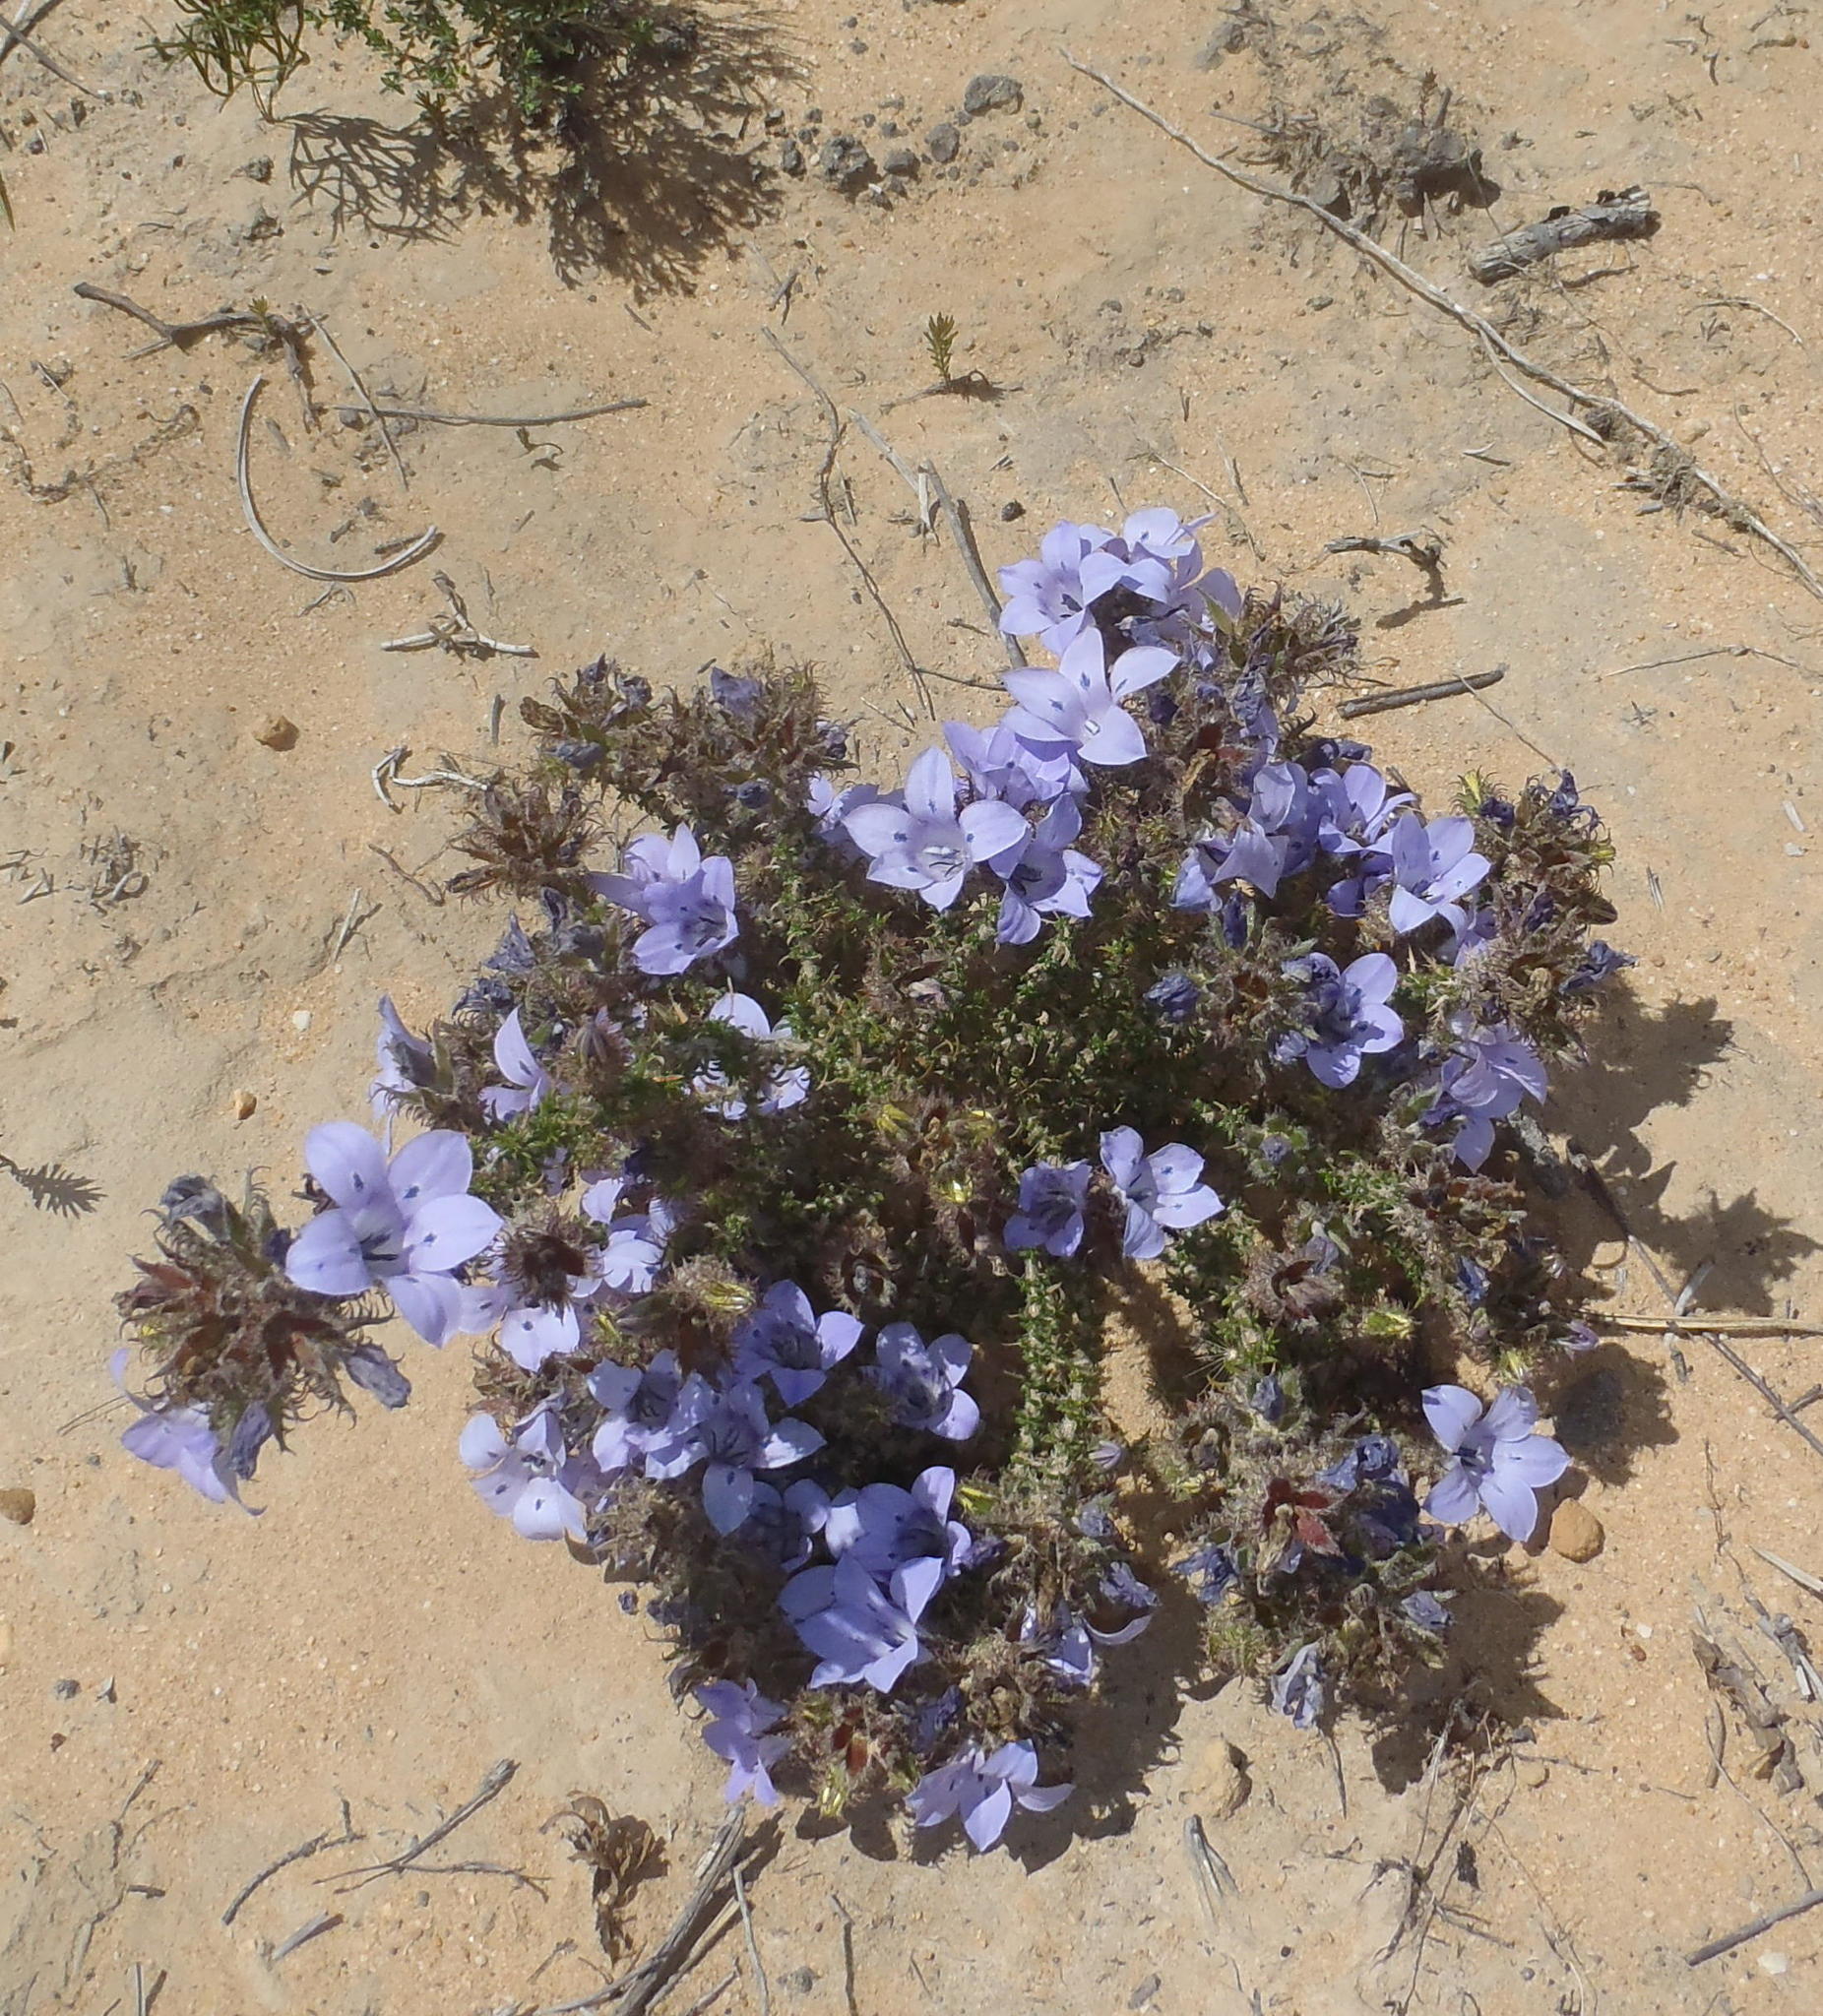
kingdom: Plantae
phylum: Tracheophyta
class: Magnoliopsida
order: Asterales
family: Campanulaceae
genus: Roella
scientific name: Roella incurva
